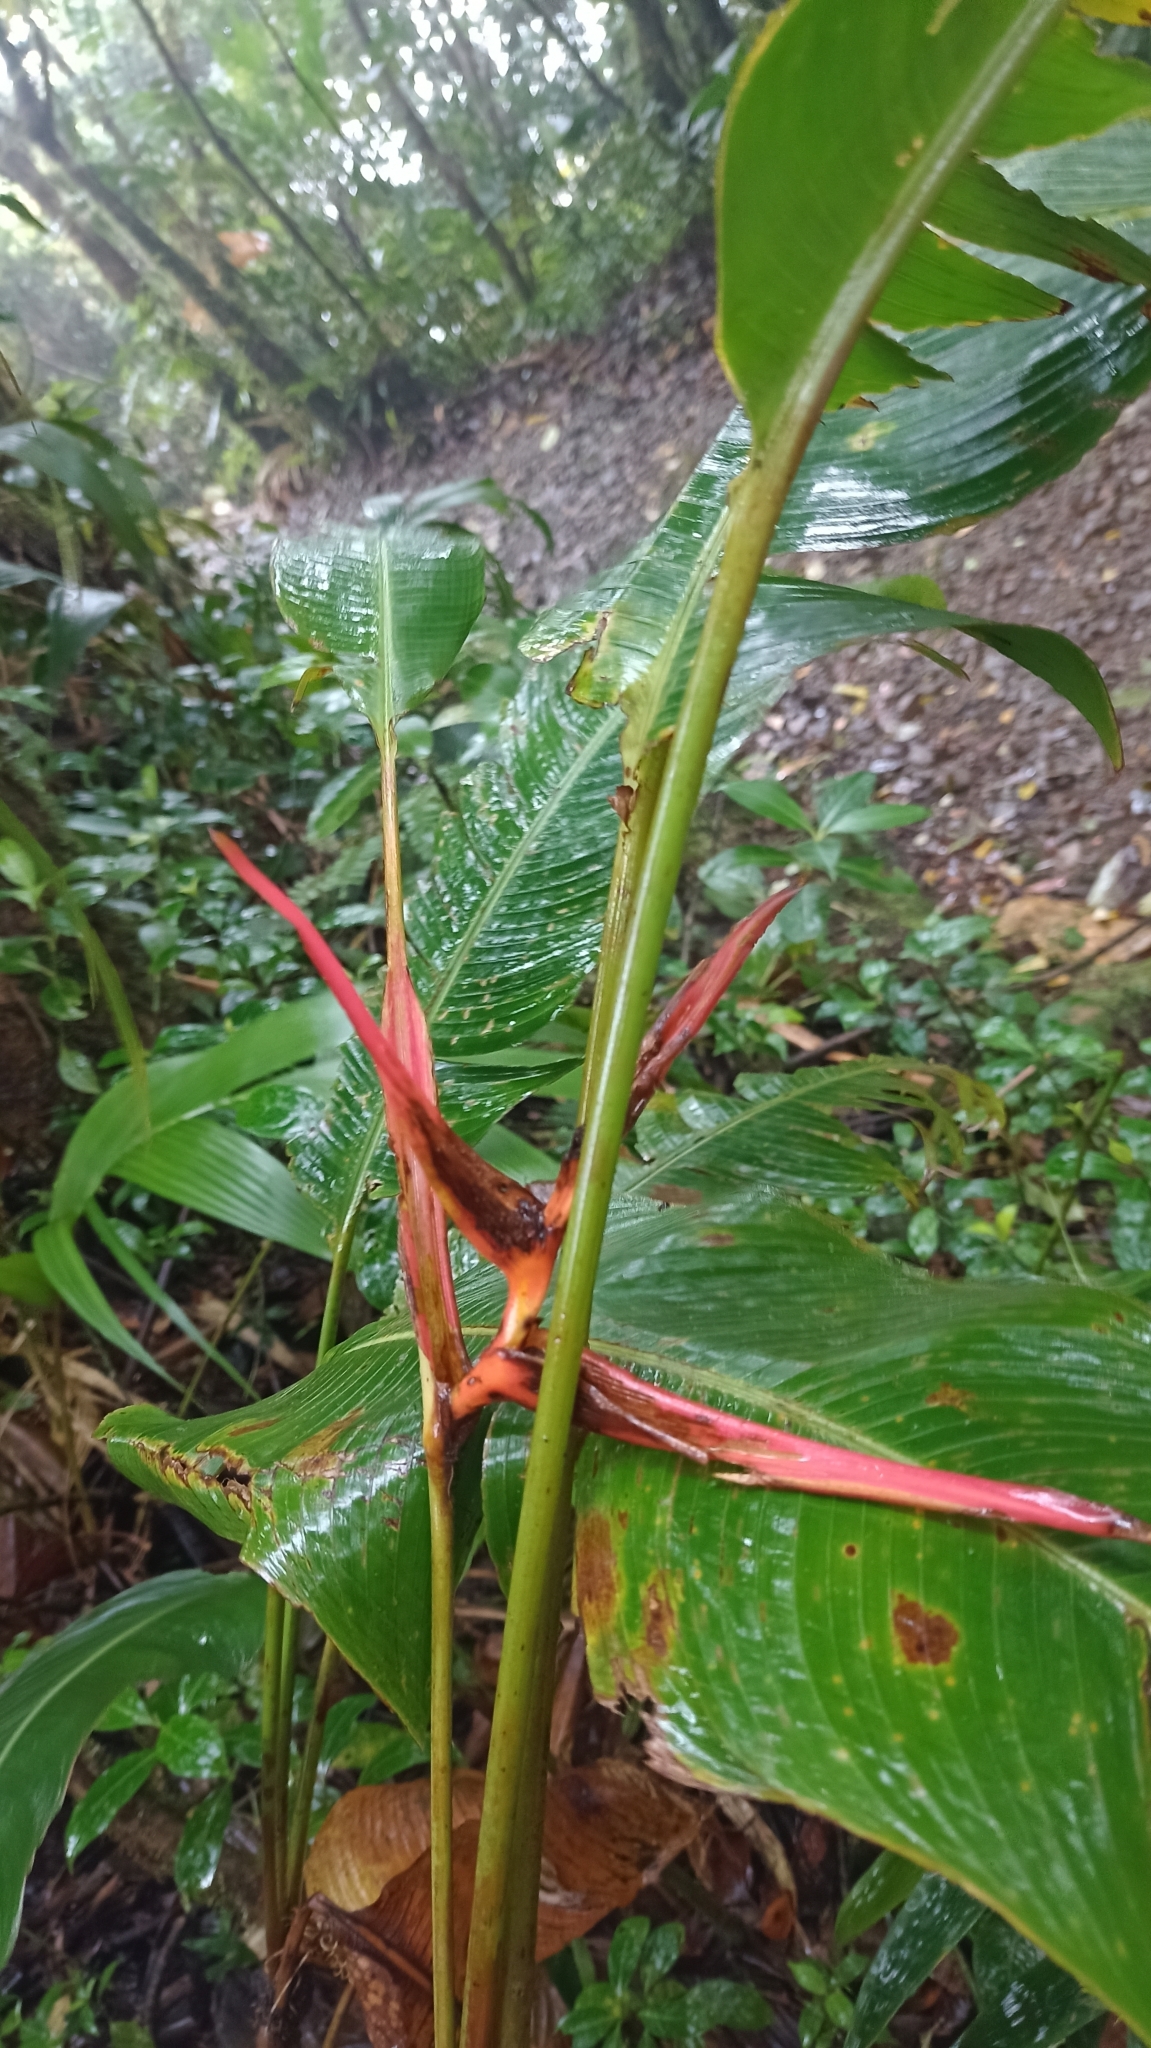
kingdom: Plantae
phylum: Tracheophyta
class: Liliopsida
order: Zingiberales
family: Heliconiaceae
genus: Heliconia
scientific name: Heliconia monteverdensis
